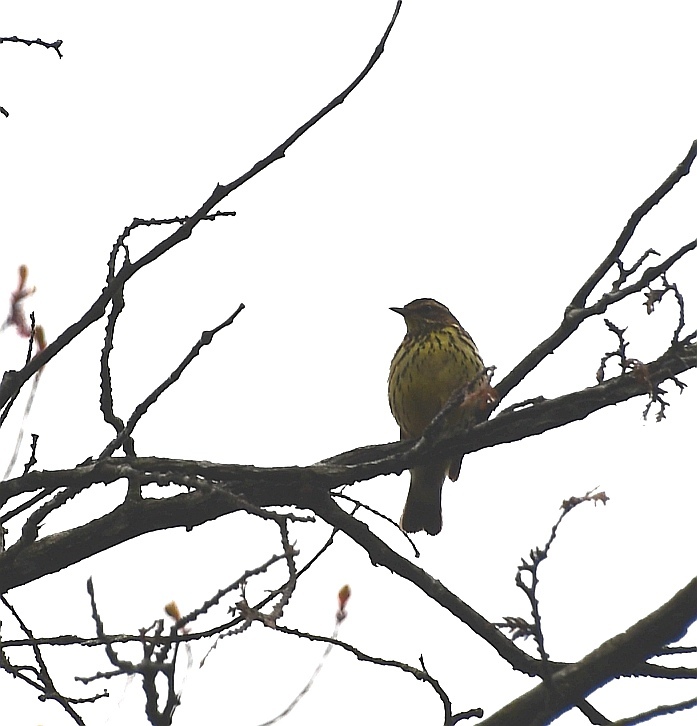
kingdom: Animalia
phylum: Chordata
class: Aves
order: Passeriformes
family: Parulidae
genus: Parkesia
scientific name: Parkesia noveboracensis
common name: Northern waterthrush
